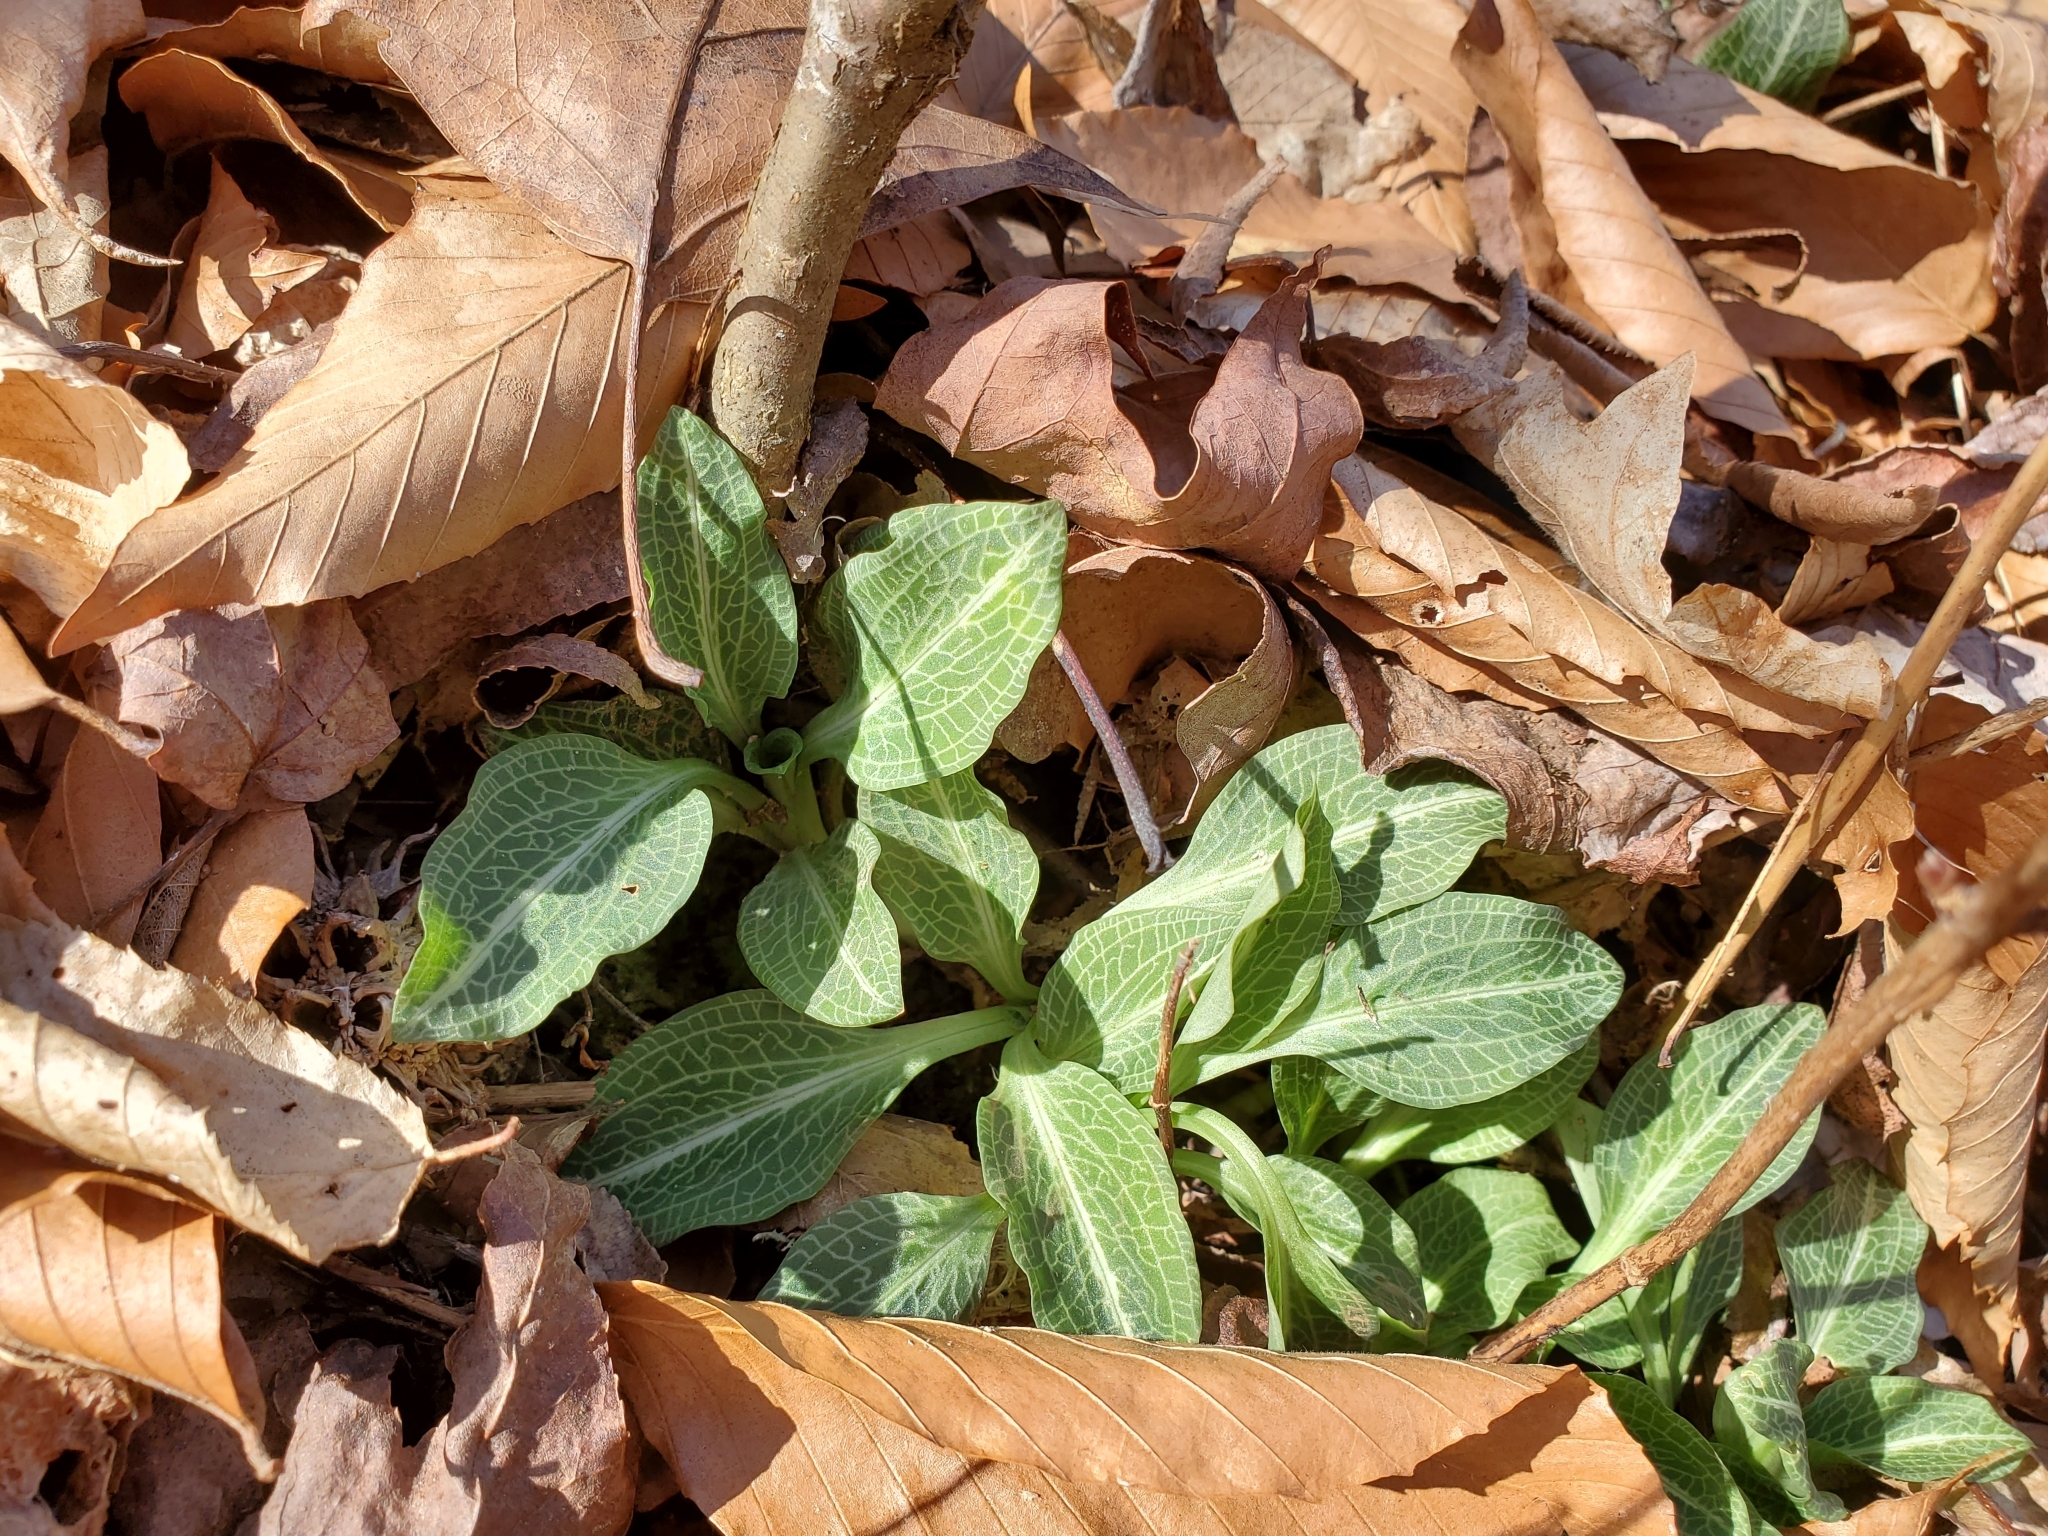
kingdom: Plantae
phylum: Tracheophyta
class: Liliopsida
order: Asparagales
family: Orchidaceae
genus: Goodyera
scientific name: Goodyera pubescens
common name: Downy rattlesnake-plantain
